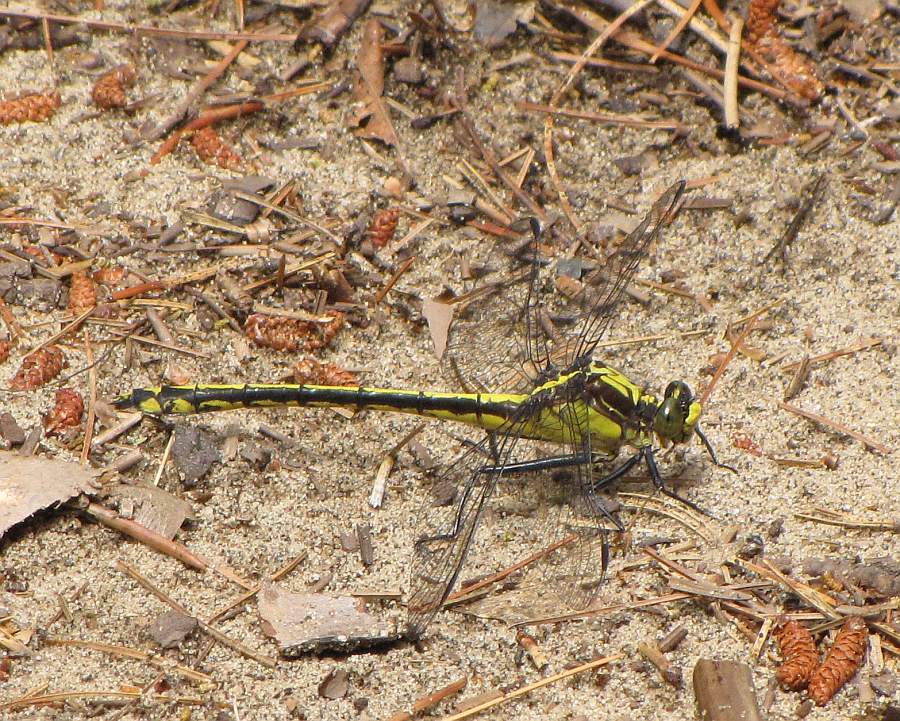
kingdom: Animalia
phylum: Arthropoda
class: Insecta
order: Odonata
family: Gomphidae
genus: Dromogomphus
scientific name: Dromogomphus spinosus
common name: Black-shouldered spinyleg
